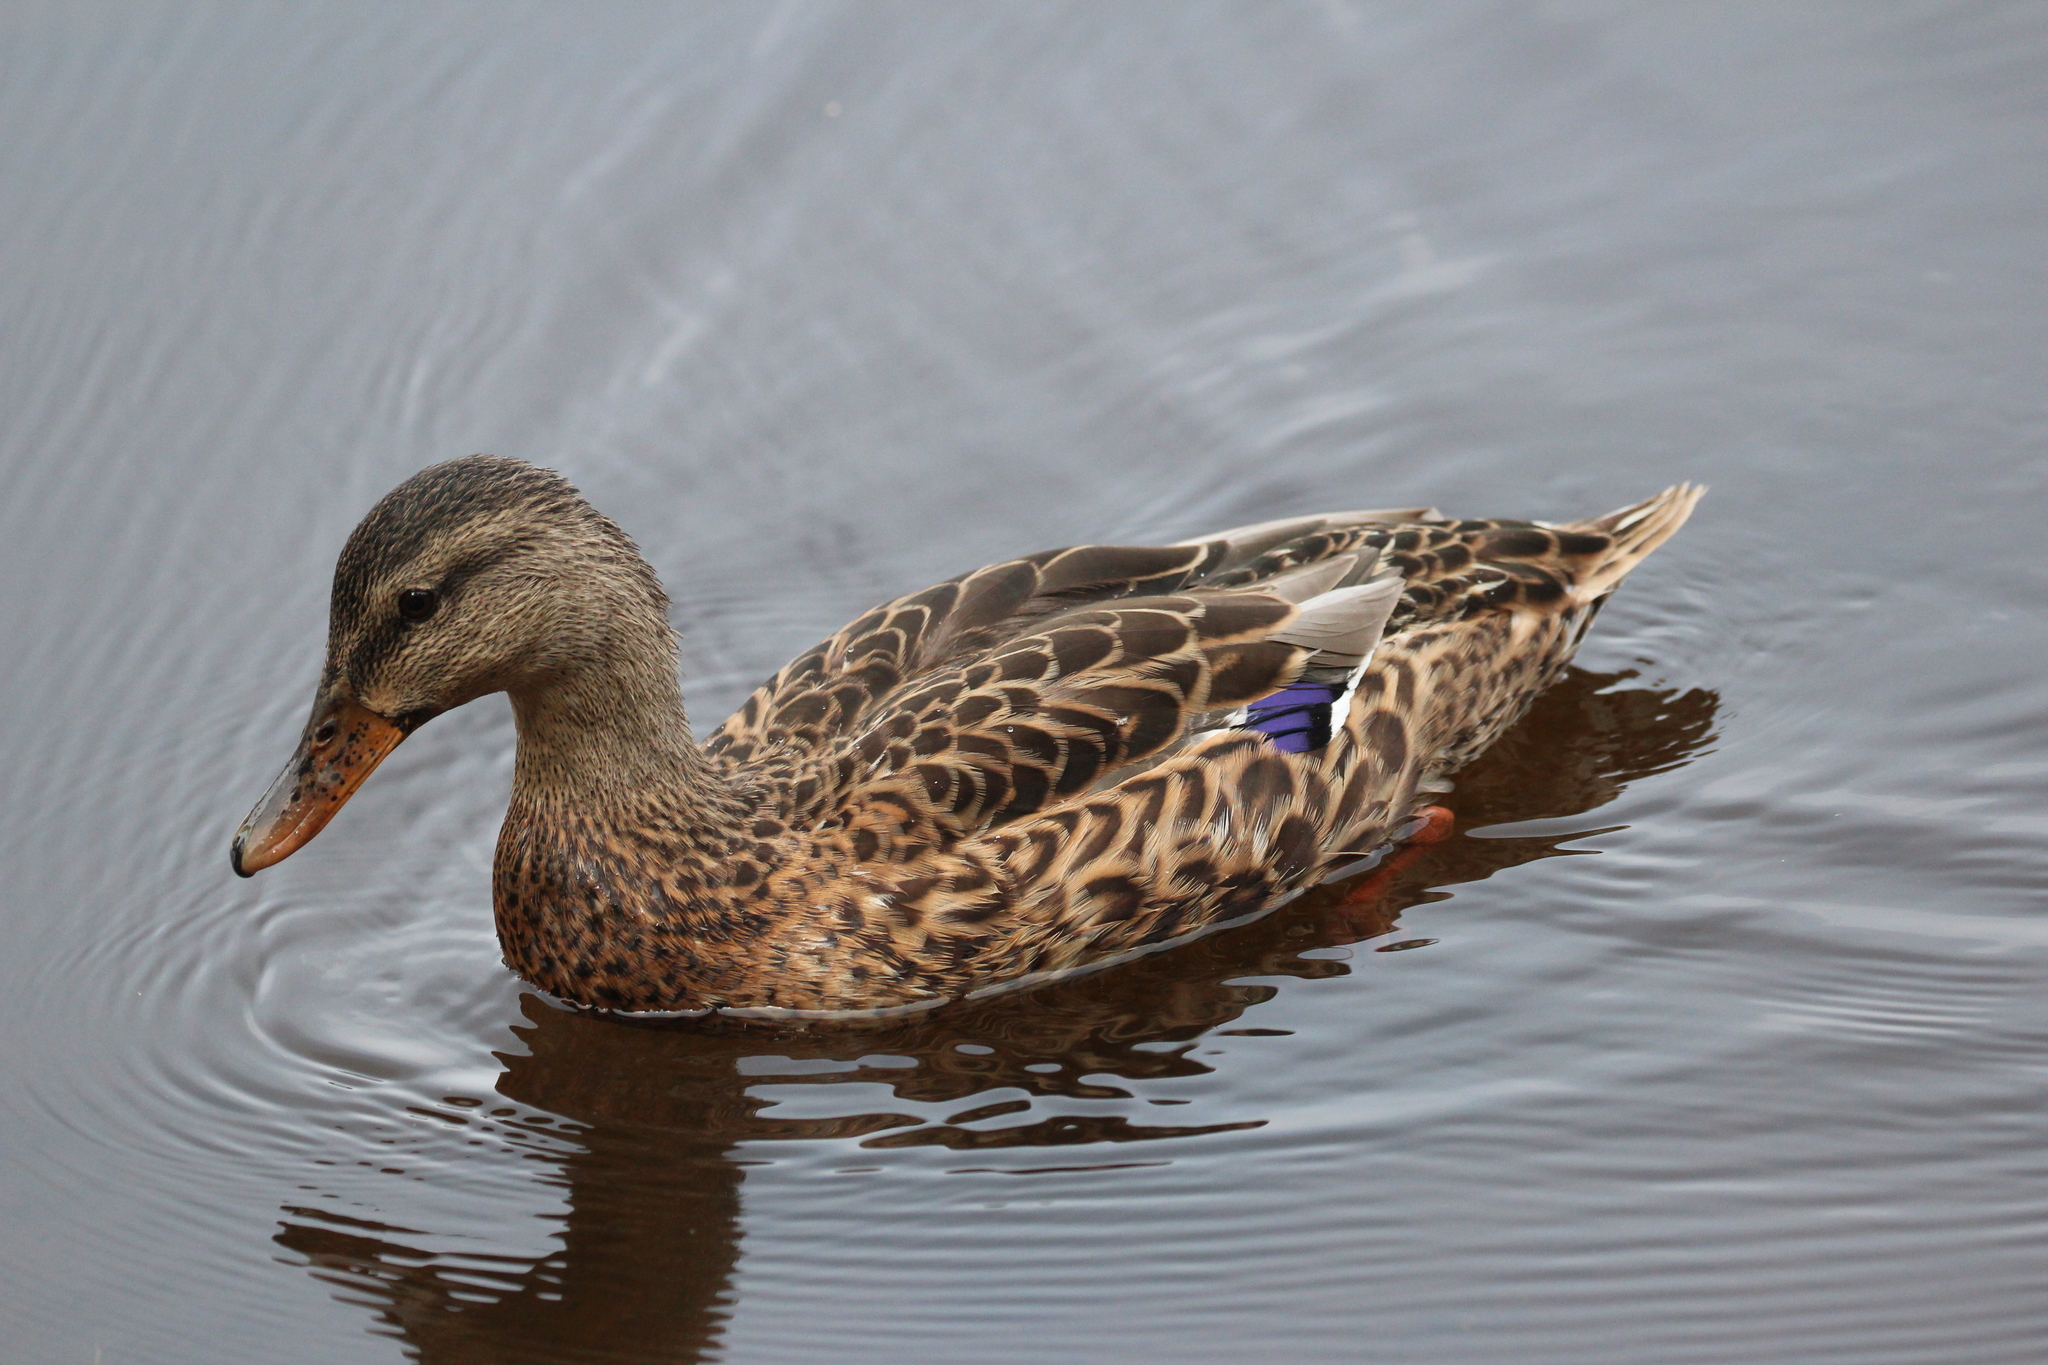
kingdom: Animalia
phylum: Chordata
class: Aves
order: Anseriformes
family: Anatidae
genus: Anas
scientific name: Anas platyrhynchos
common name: Mallard
